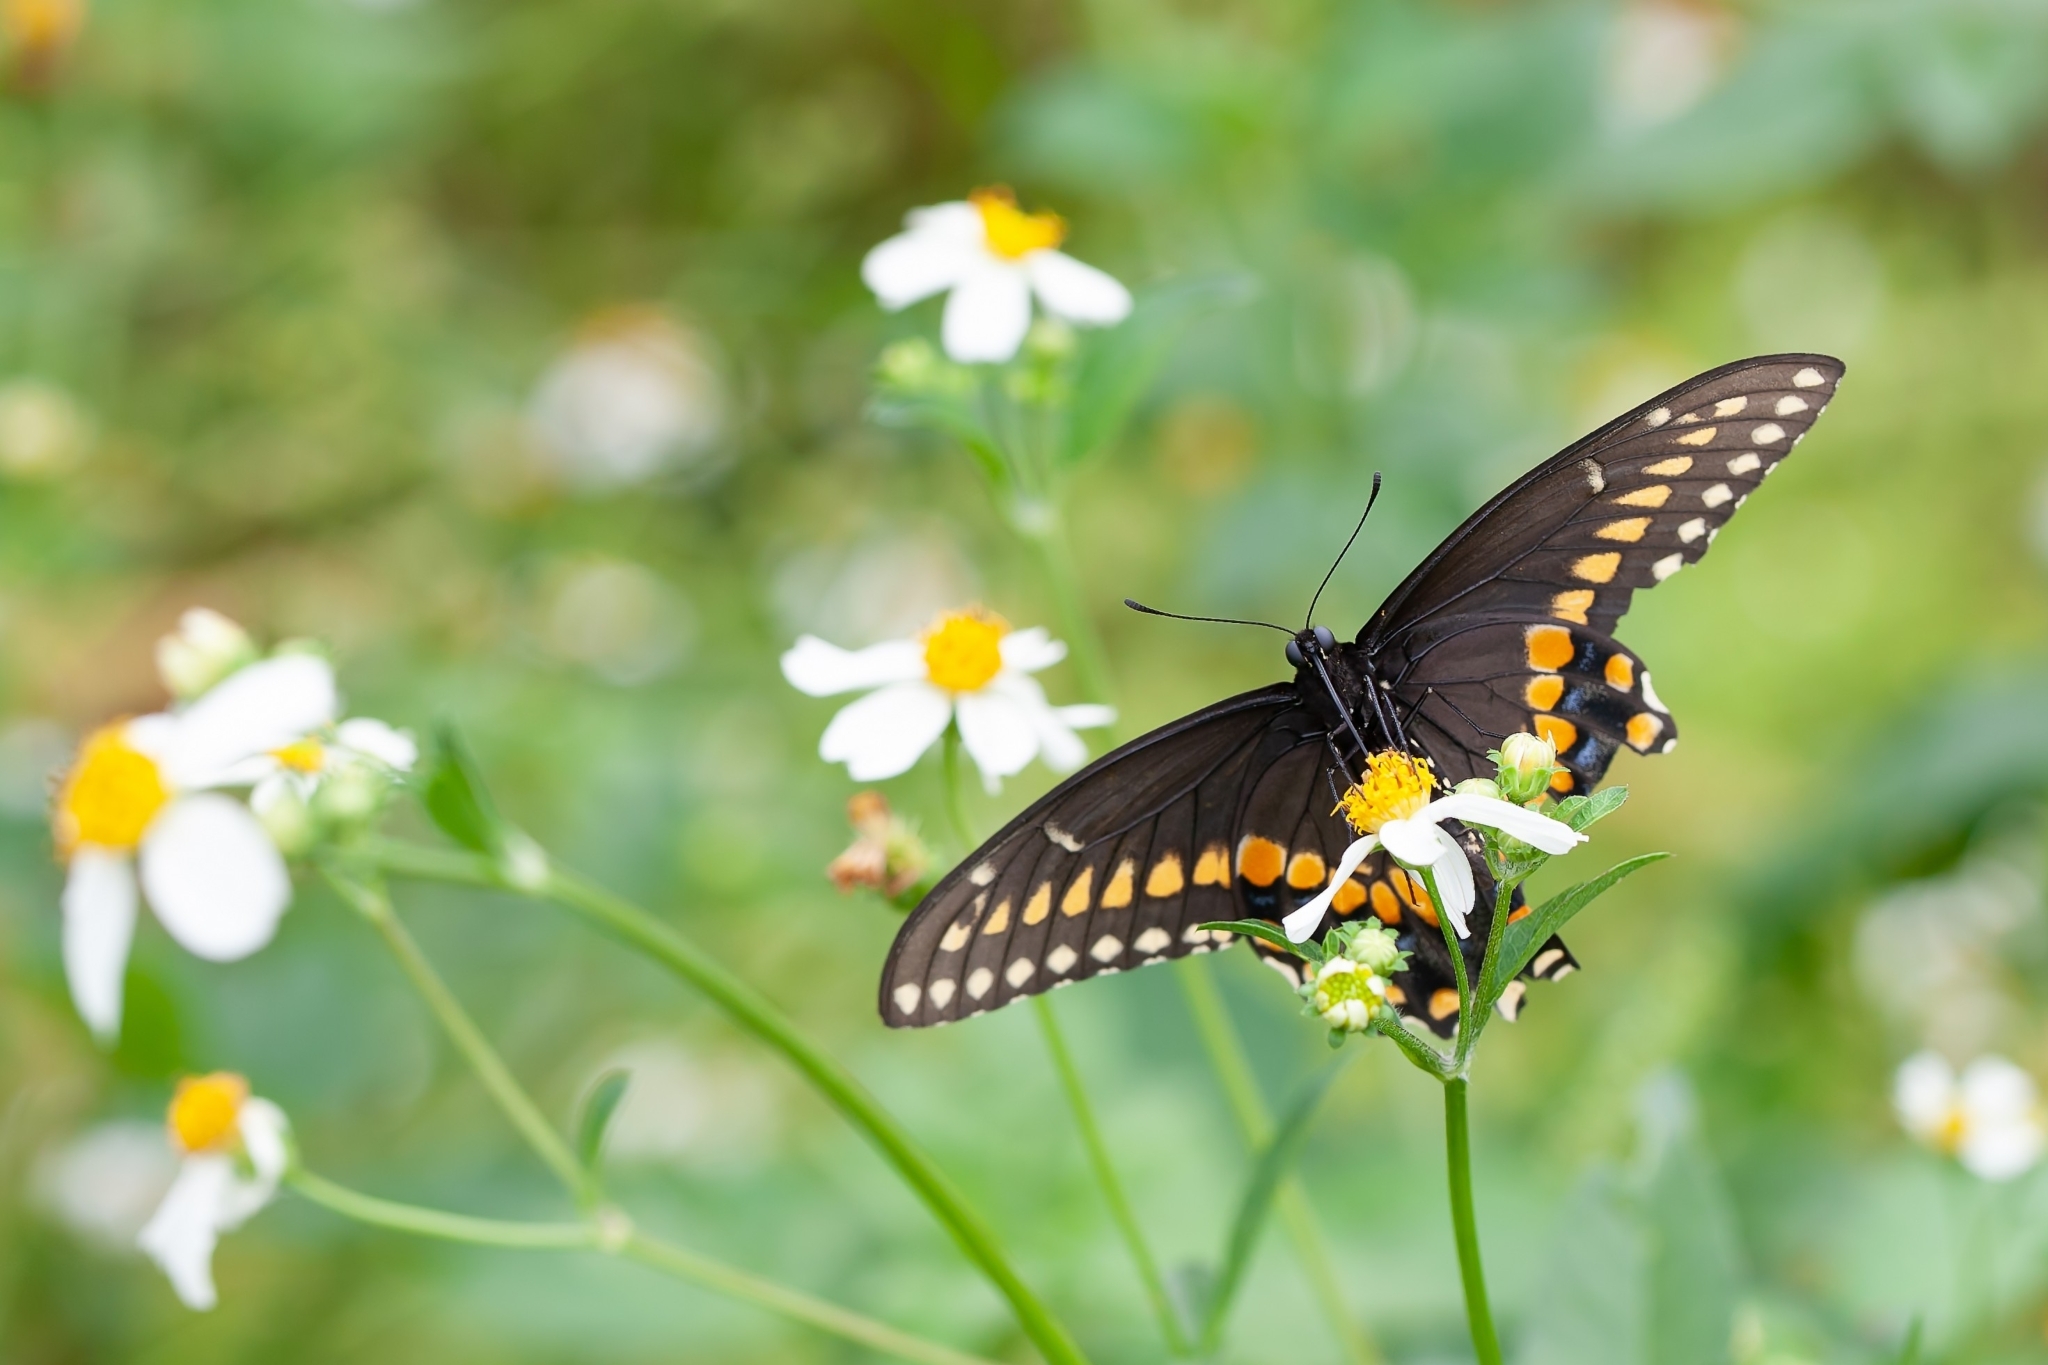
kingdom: Animalia
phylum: Arthropoda
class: Insecta
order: Lepidoptera
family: Papilionidae
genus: Papilio
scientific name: Papilio polyxenes
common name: Black swallowtail
